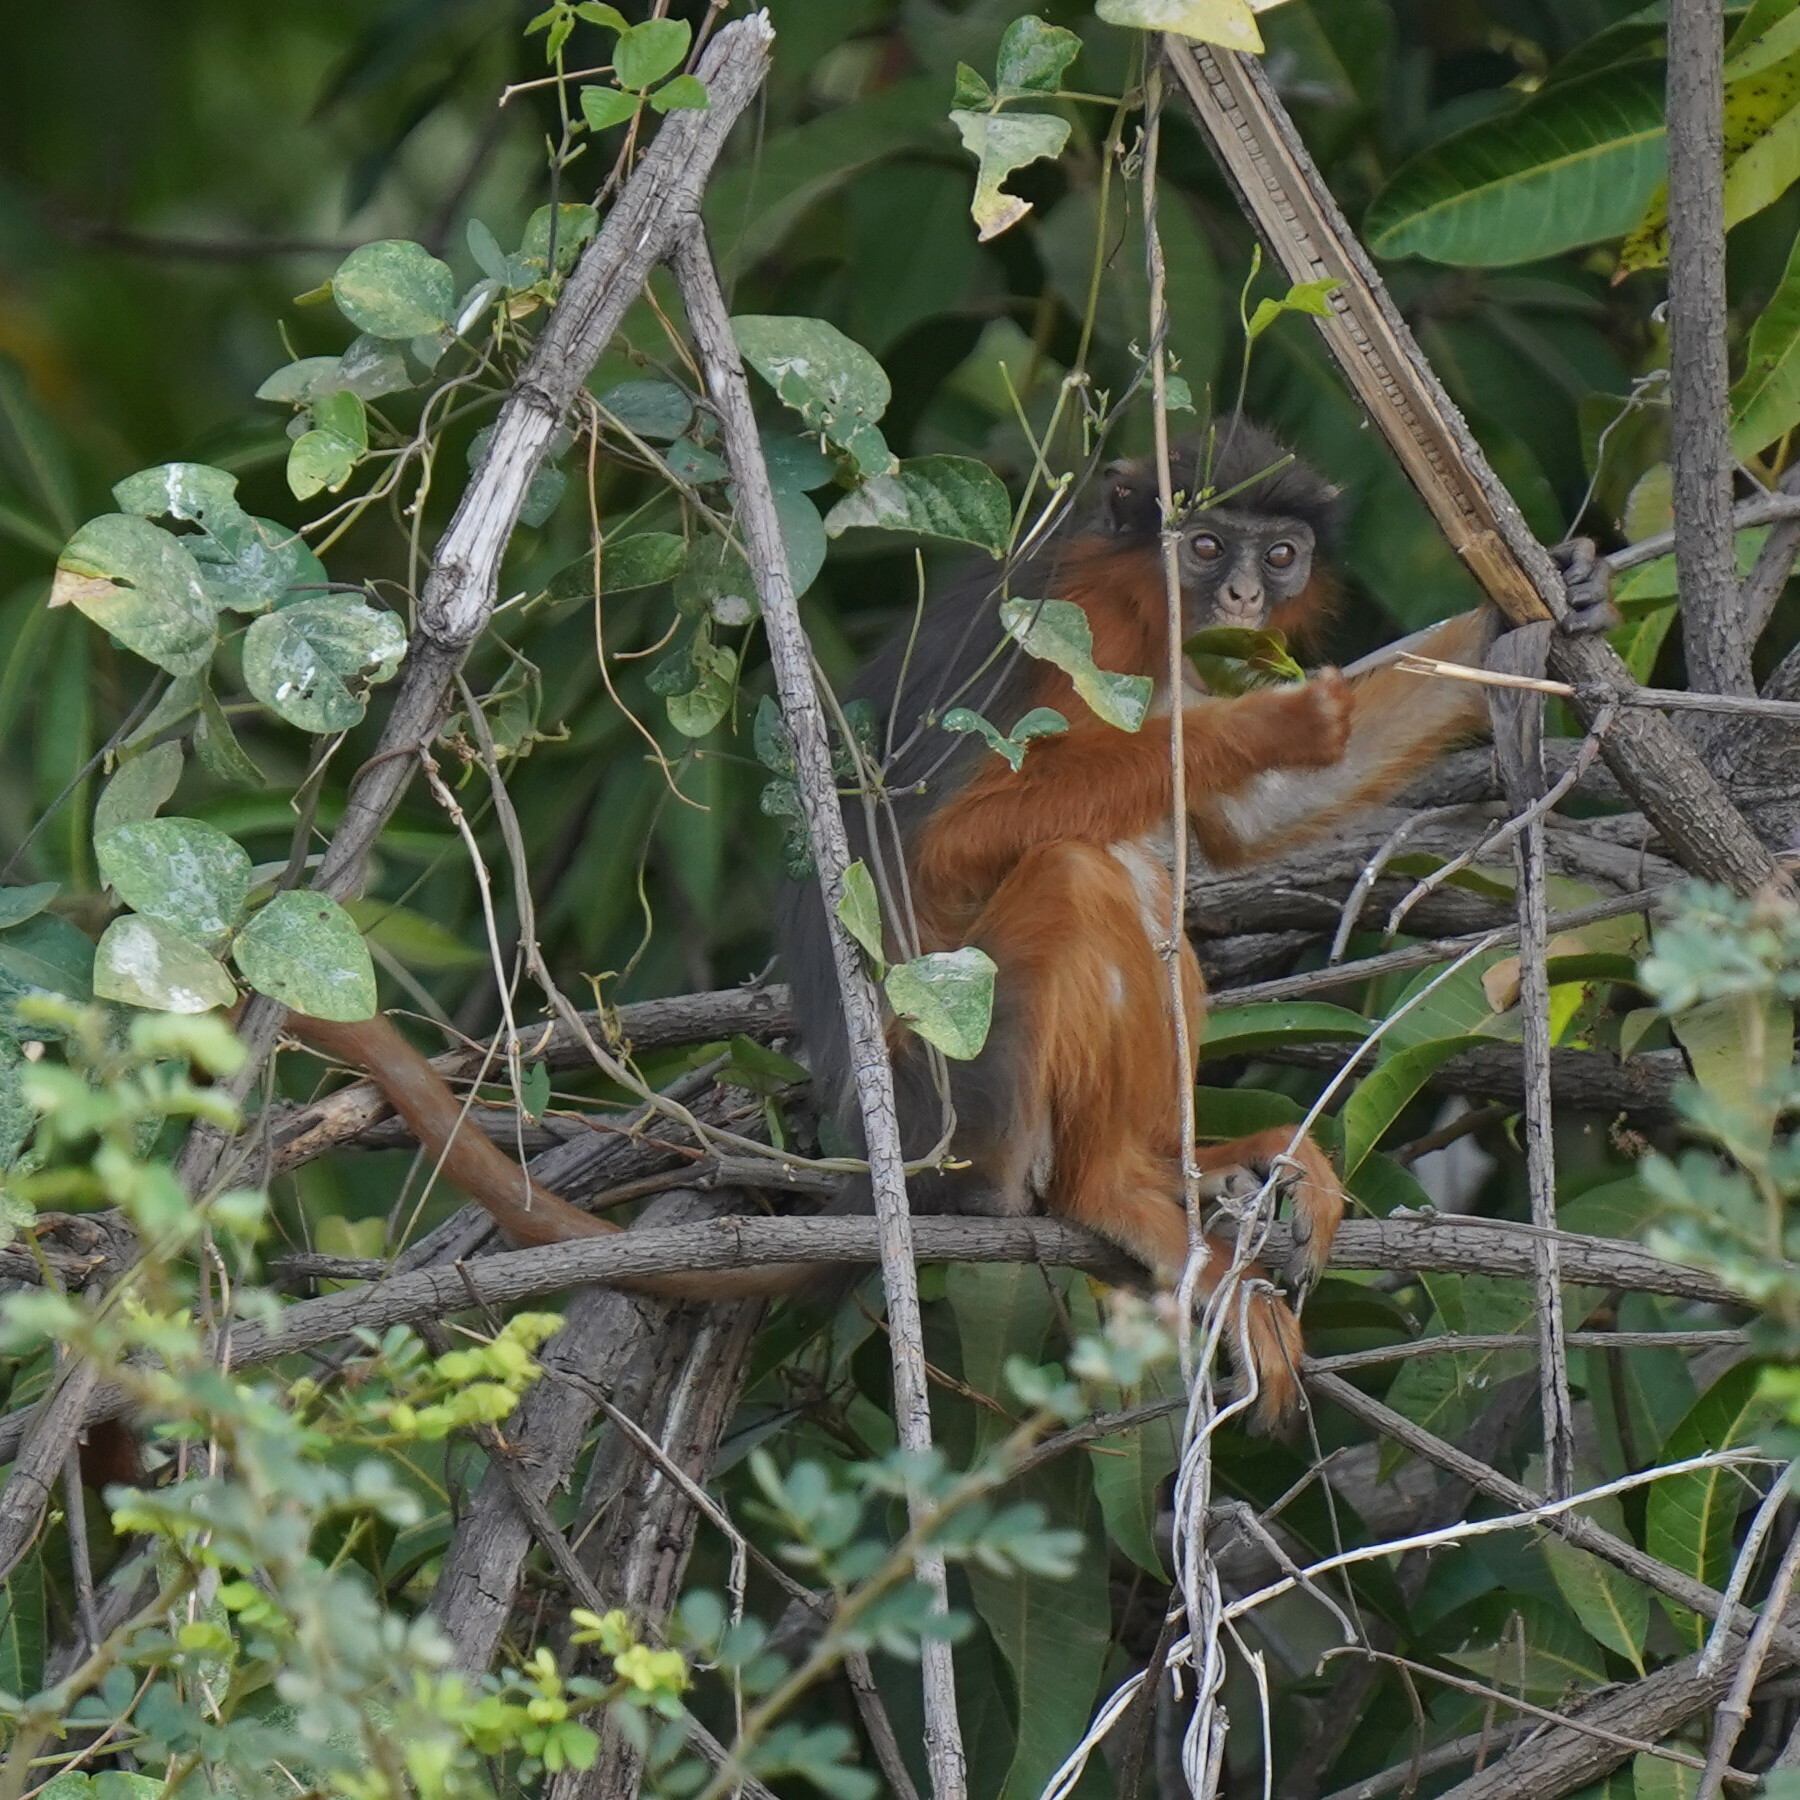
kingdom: Animalia
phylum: Chordata
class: Mammalia
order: Primates
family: Cercopithecidae
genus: Piliocolobus
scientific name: Piliocolobus badius
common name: Western red colobus
